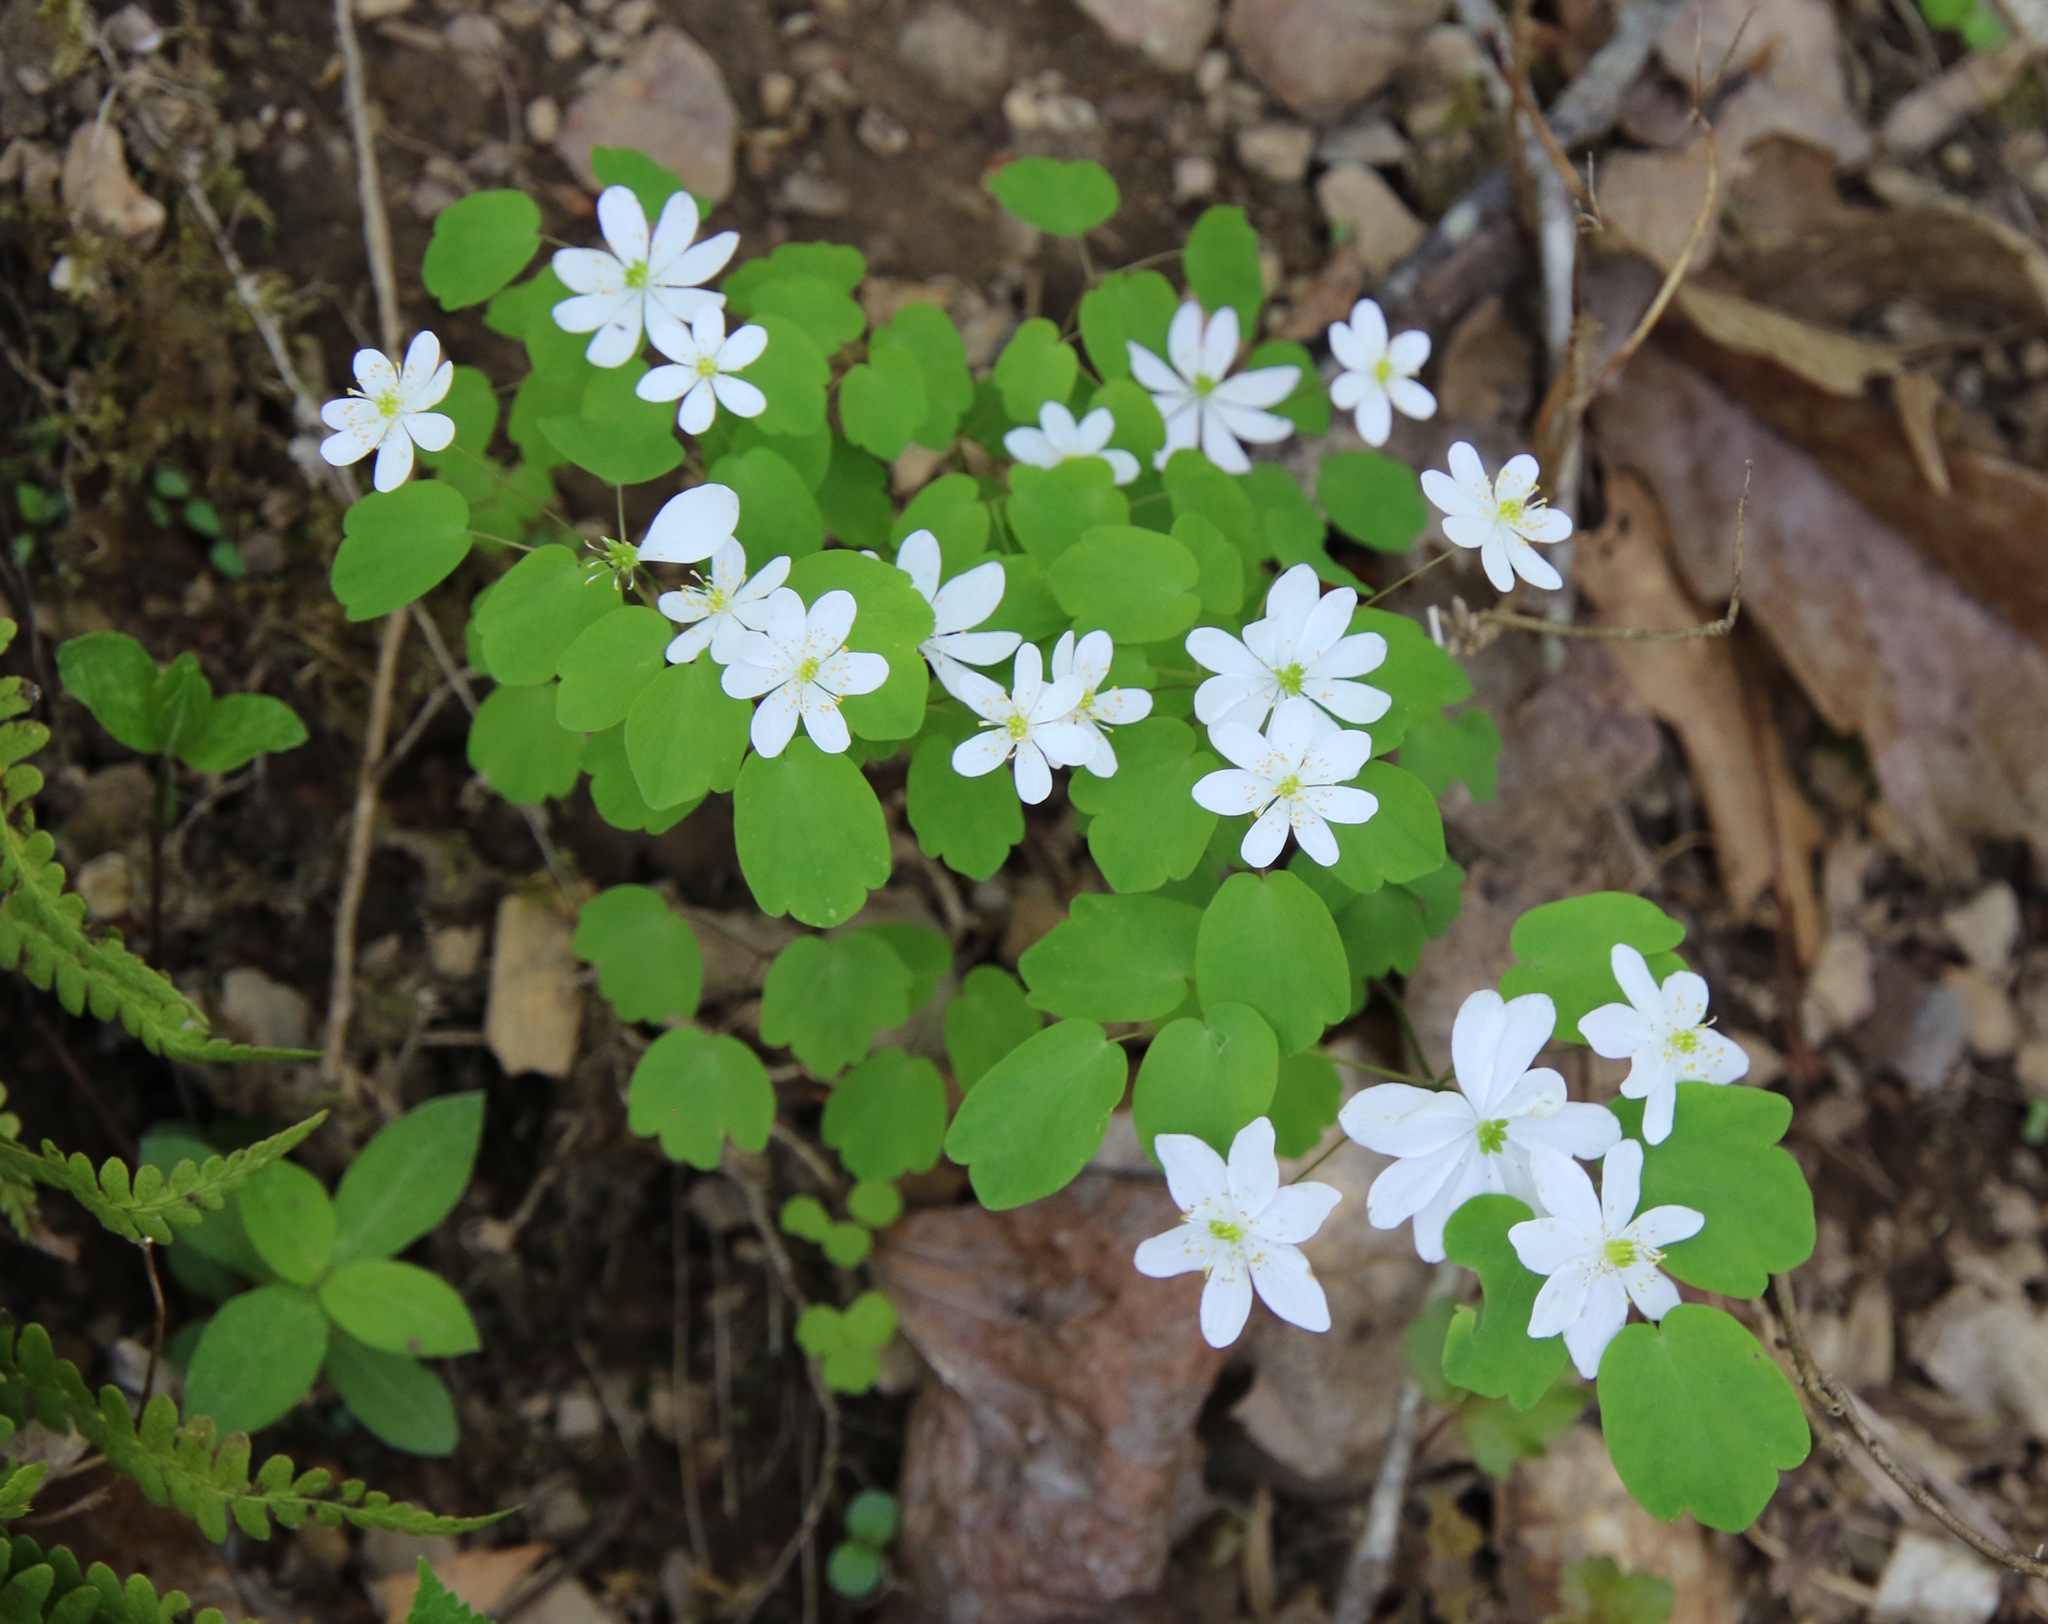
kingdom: Plantae
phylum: Tracheophyta
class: Magnoliopsida
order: Ranunculales
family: Ranunculaceae
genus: Thalictrum
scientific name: Thalictrum thalictroides
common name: Rue-anemone
